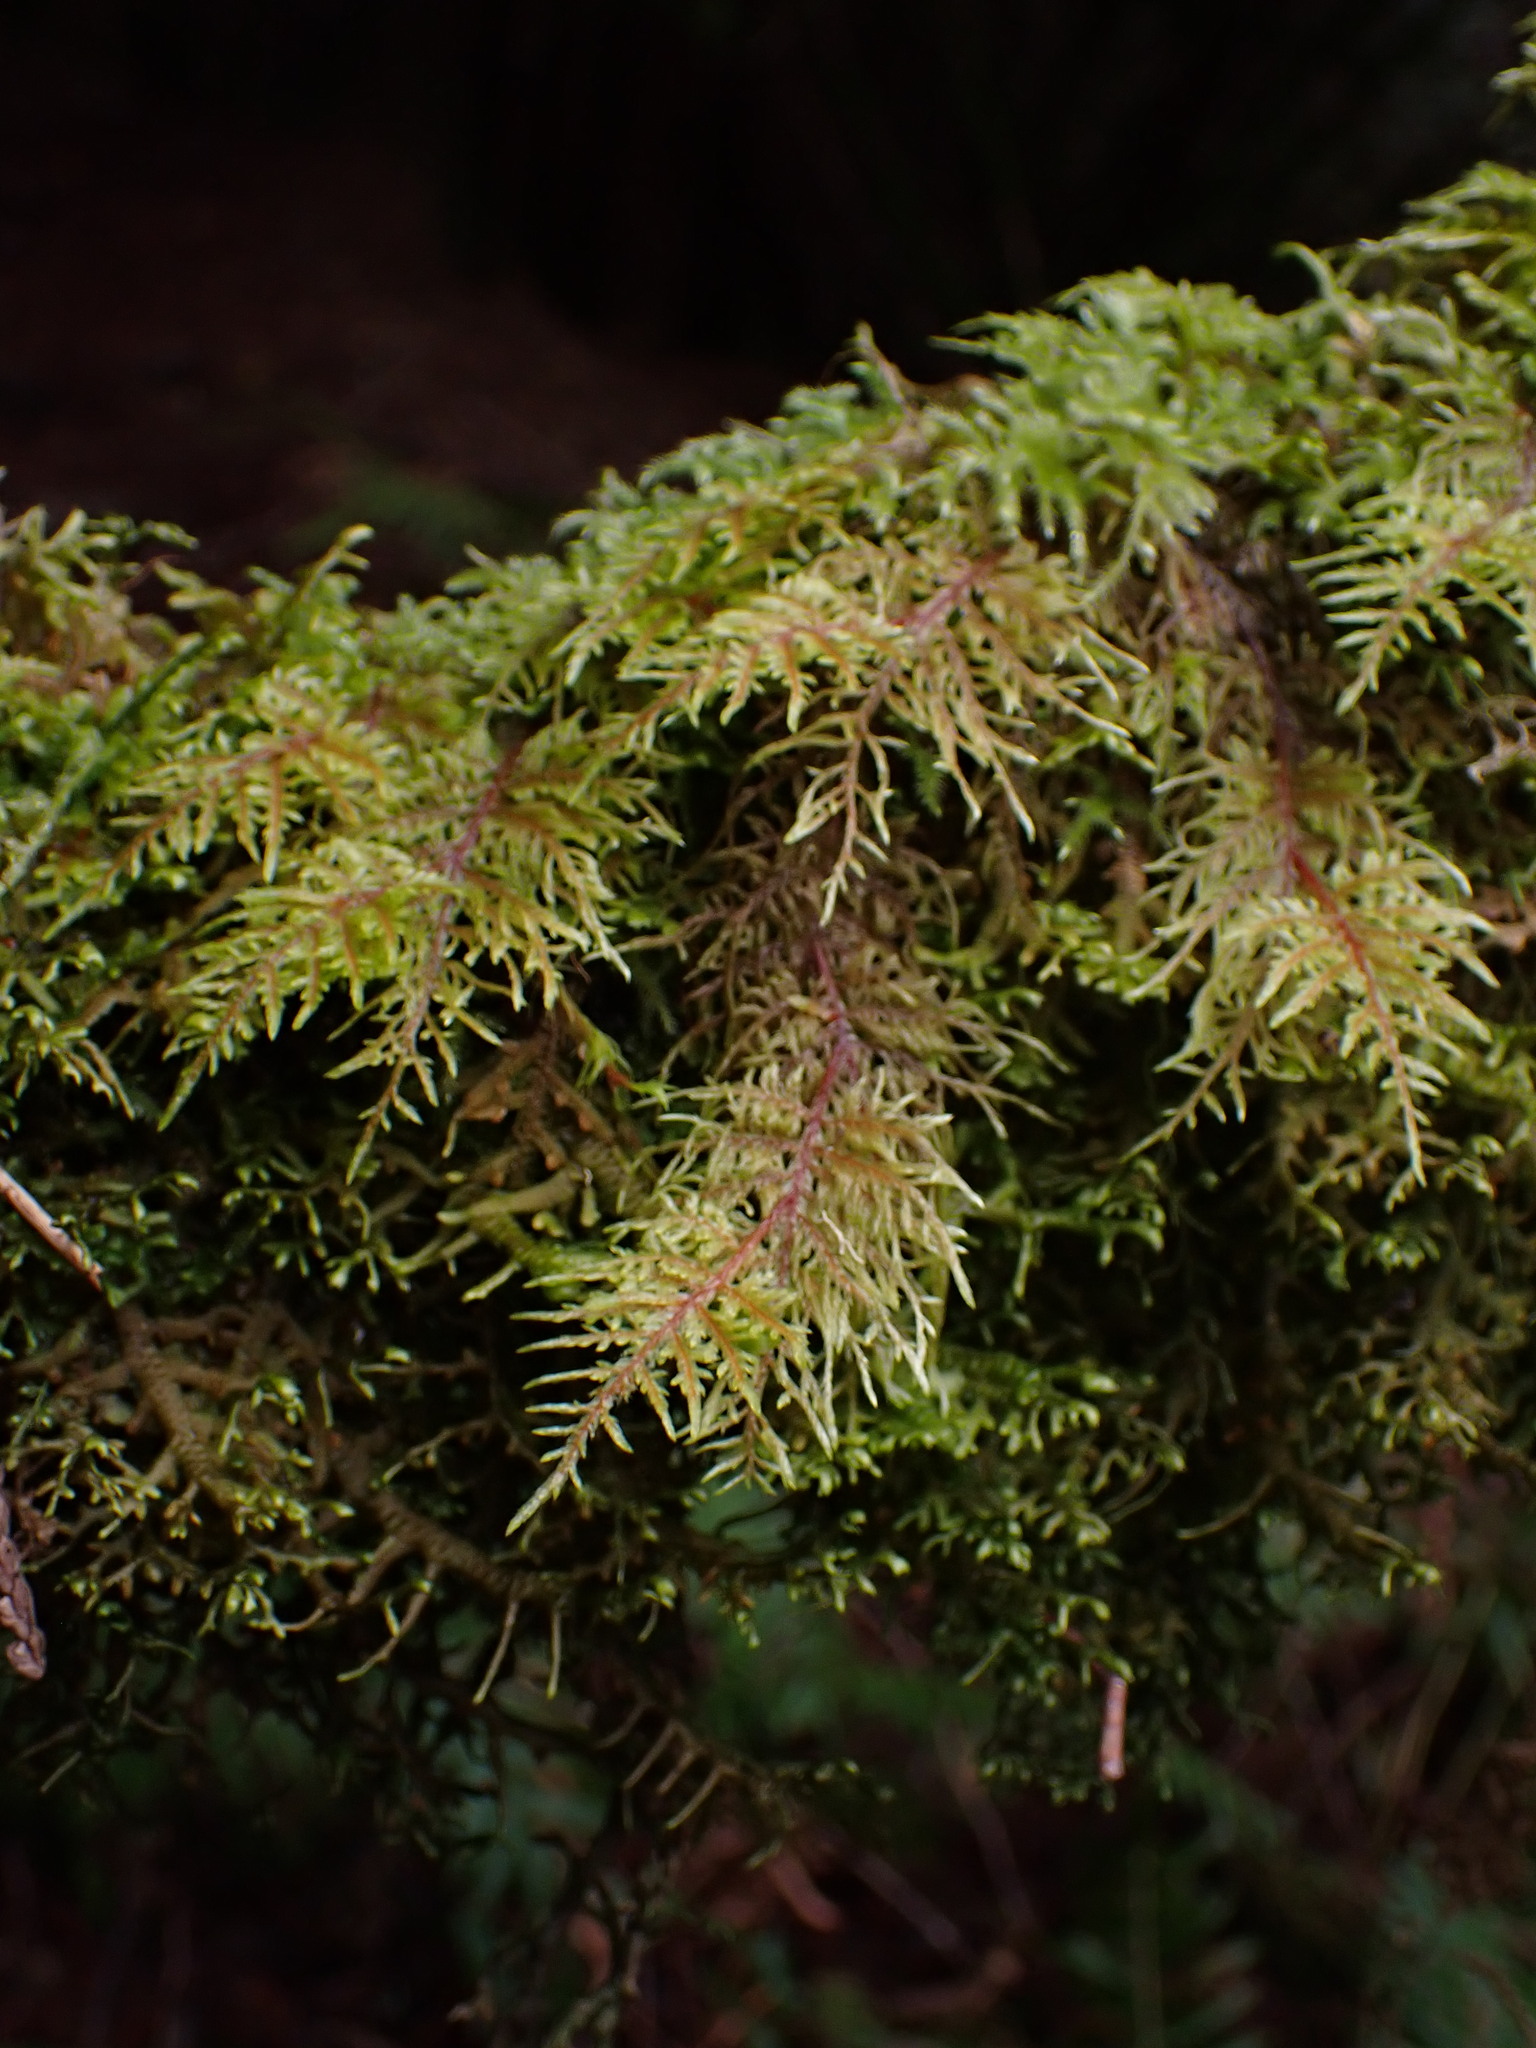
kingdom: Plantae
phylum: Bryophyta
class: Bryopsida
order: Hypnales
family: Hylocomiaceae
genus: Hylocomium
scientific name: Hylocomium splendens
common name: Stairstep moss
